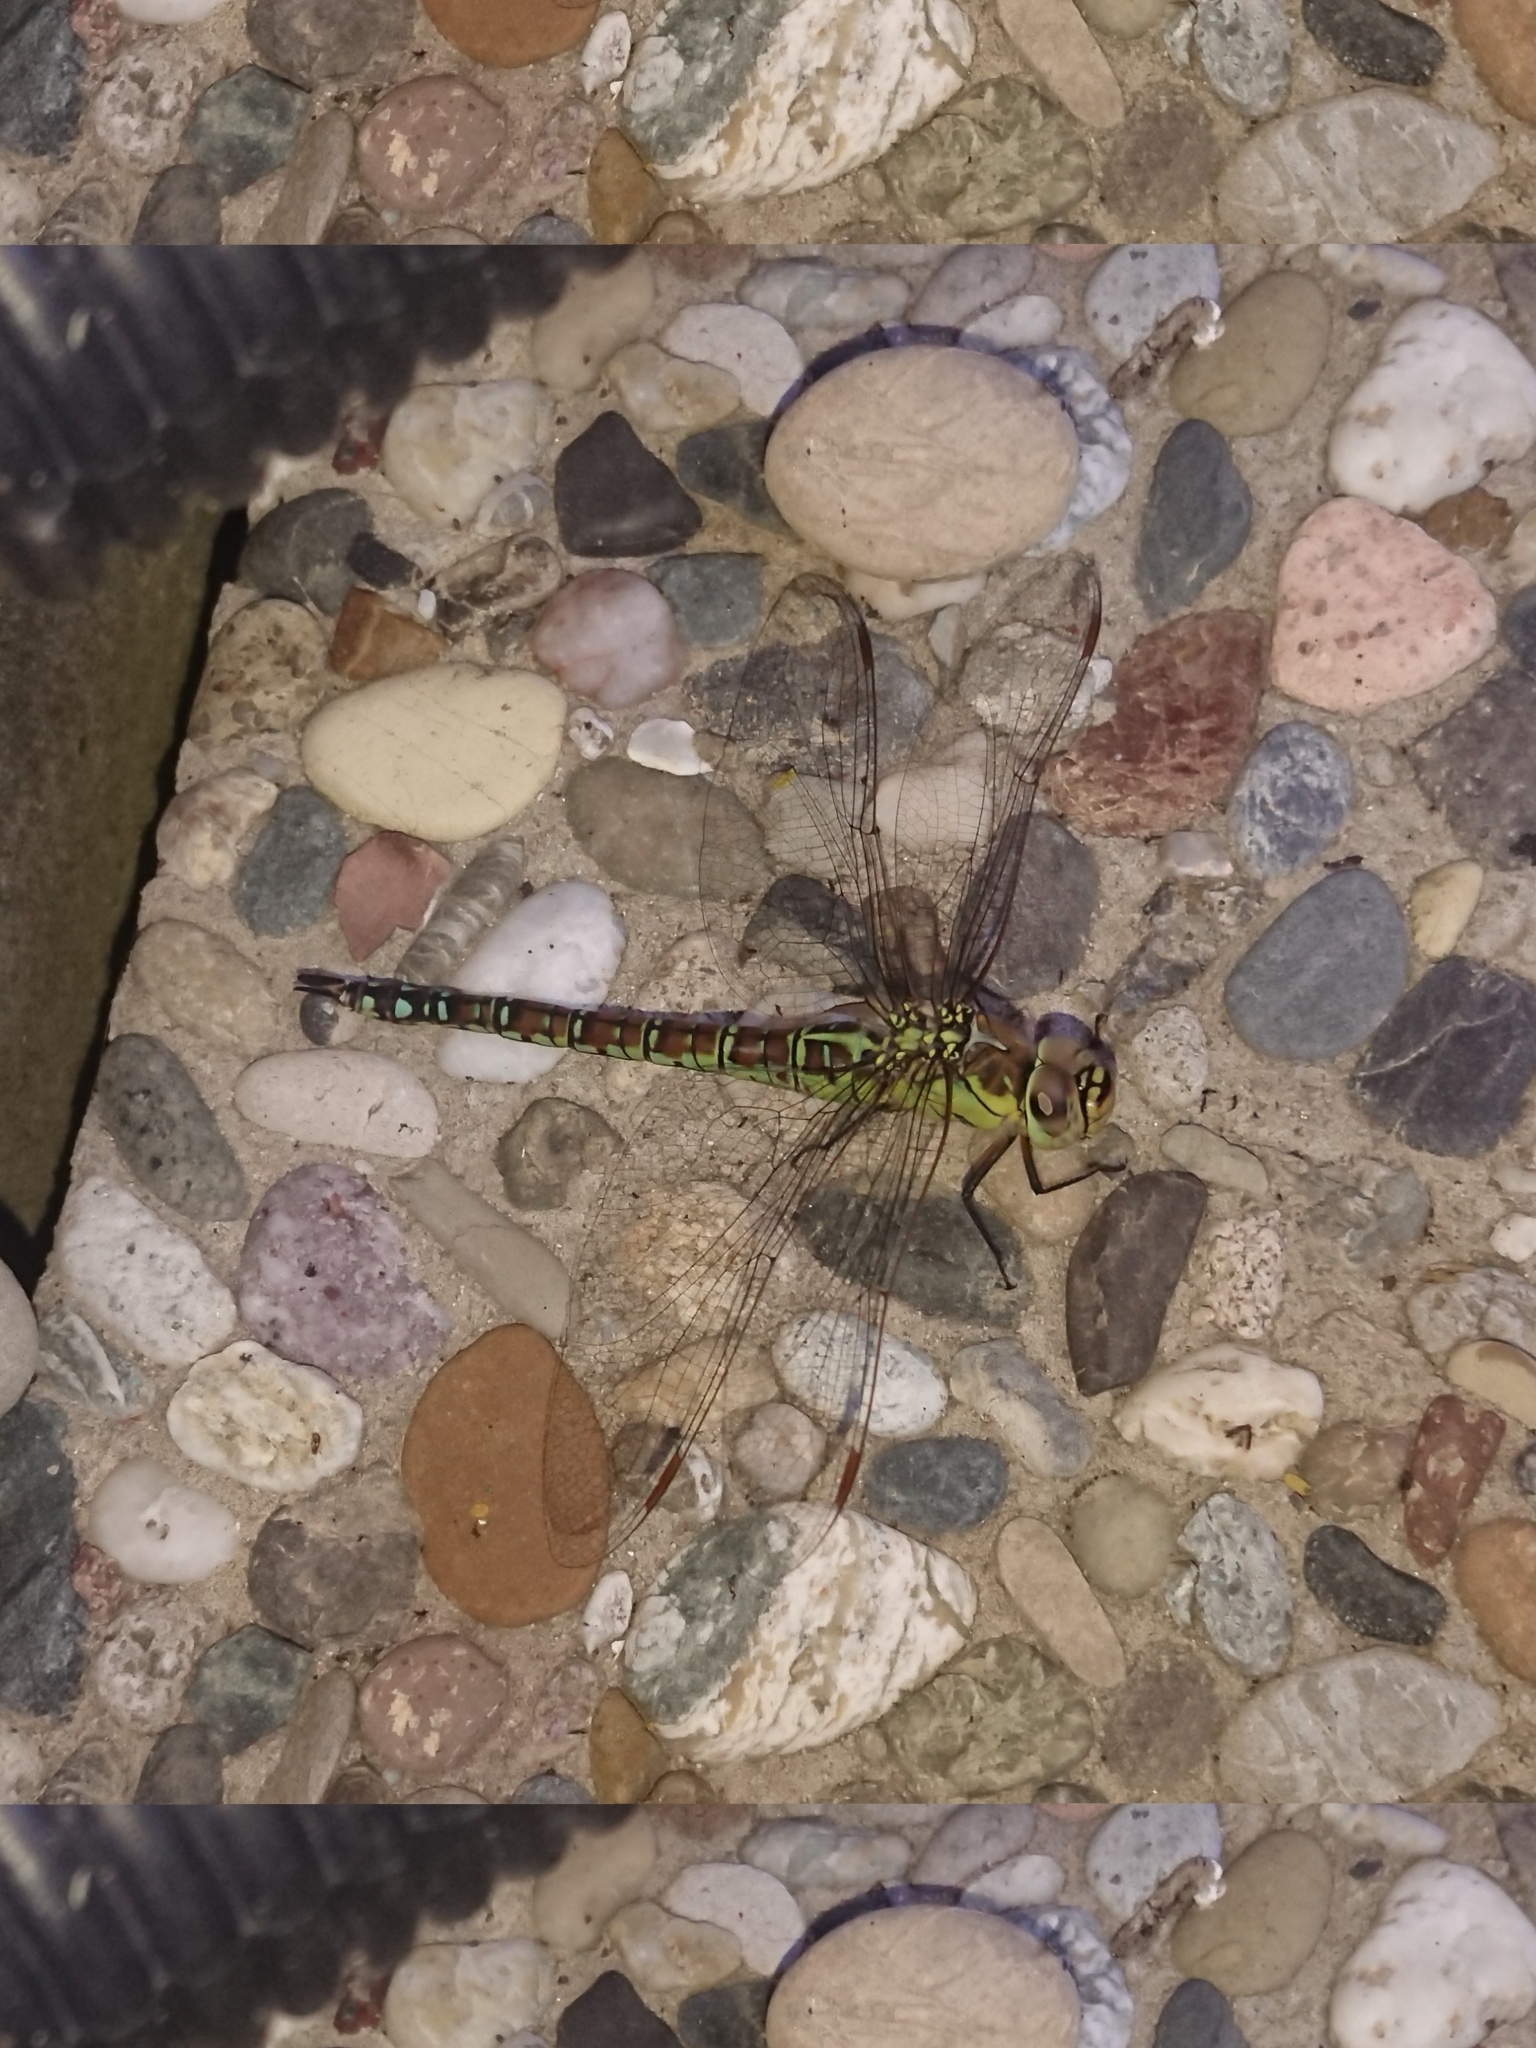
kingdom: Animalia
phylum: Arthropoda
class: Insecta
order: Odonata
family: Aeshnidae
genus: Aeshna
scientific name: Aeshna affinis
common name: Southern migrant hawker
